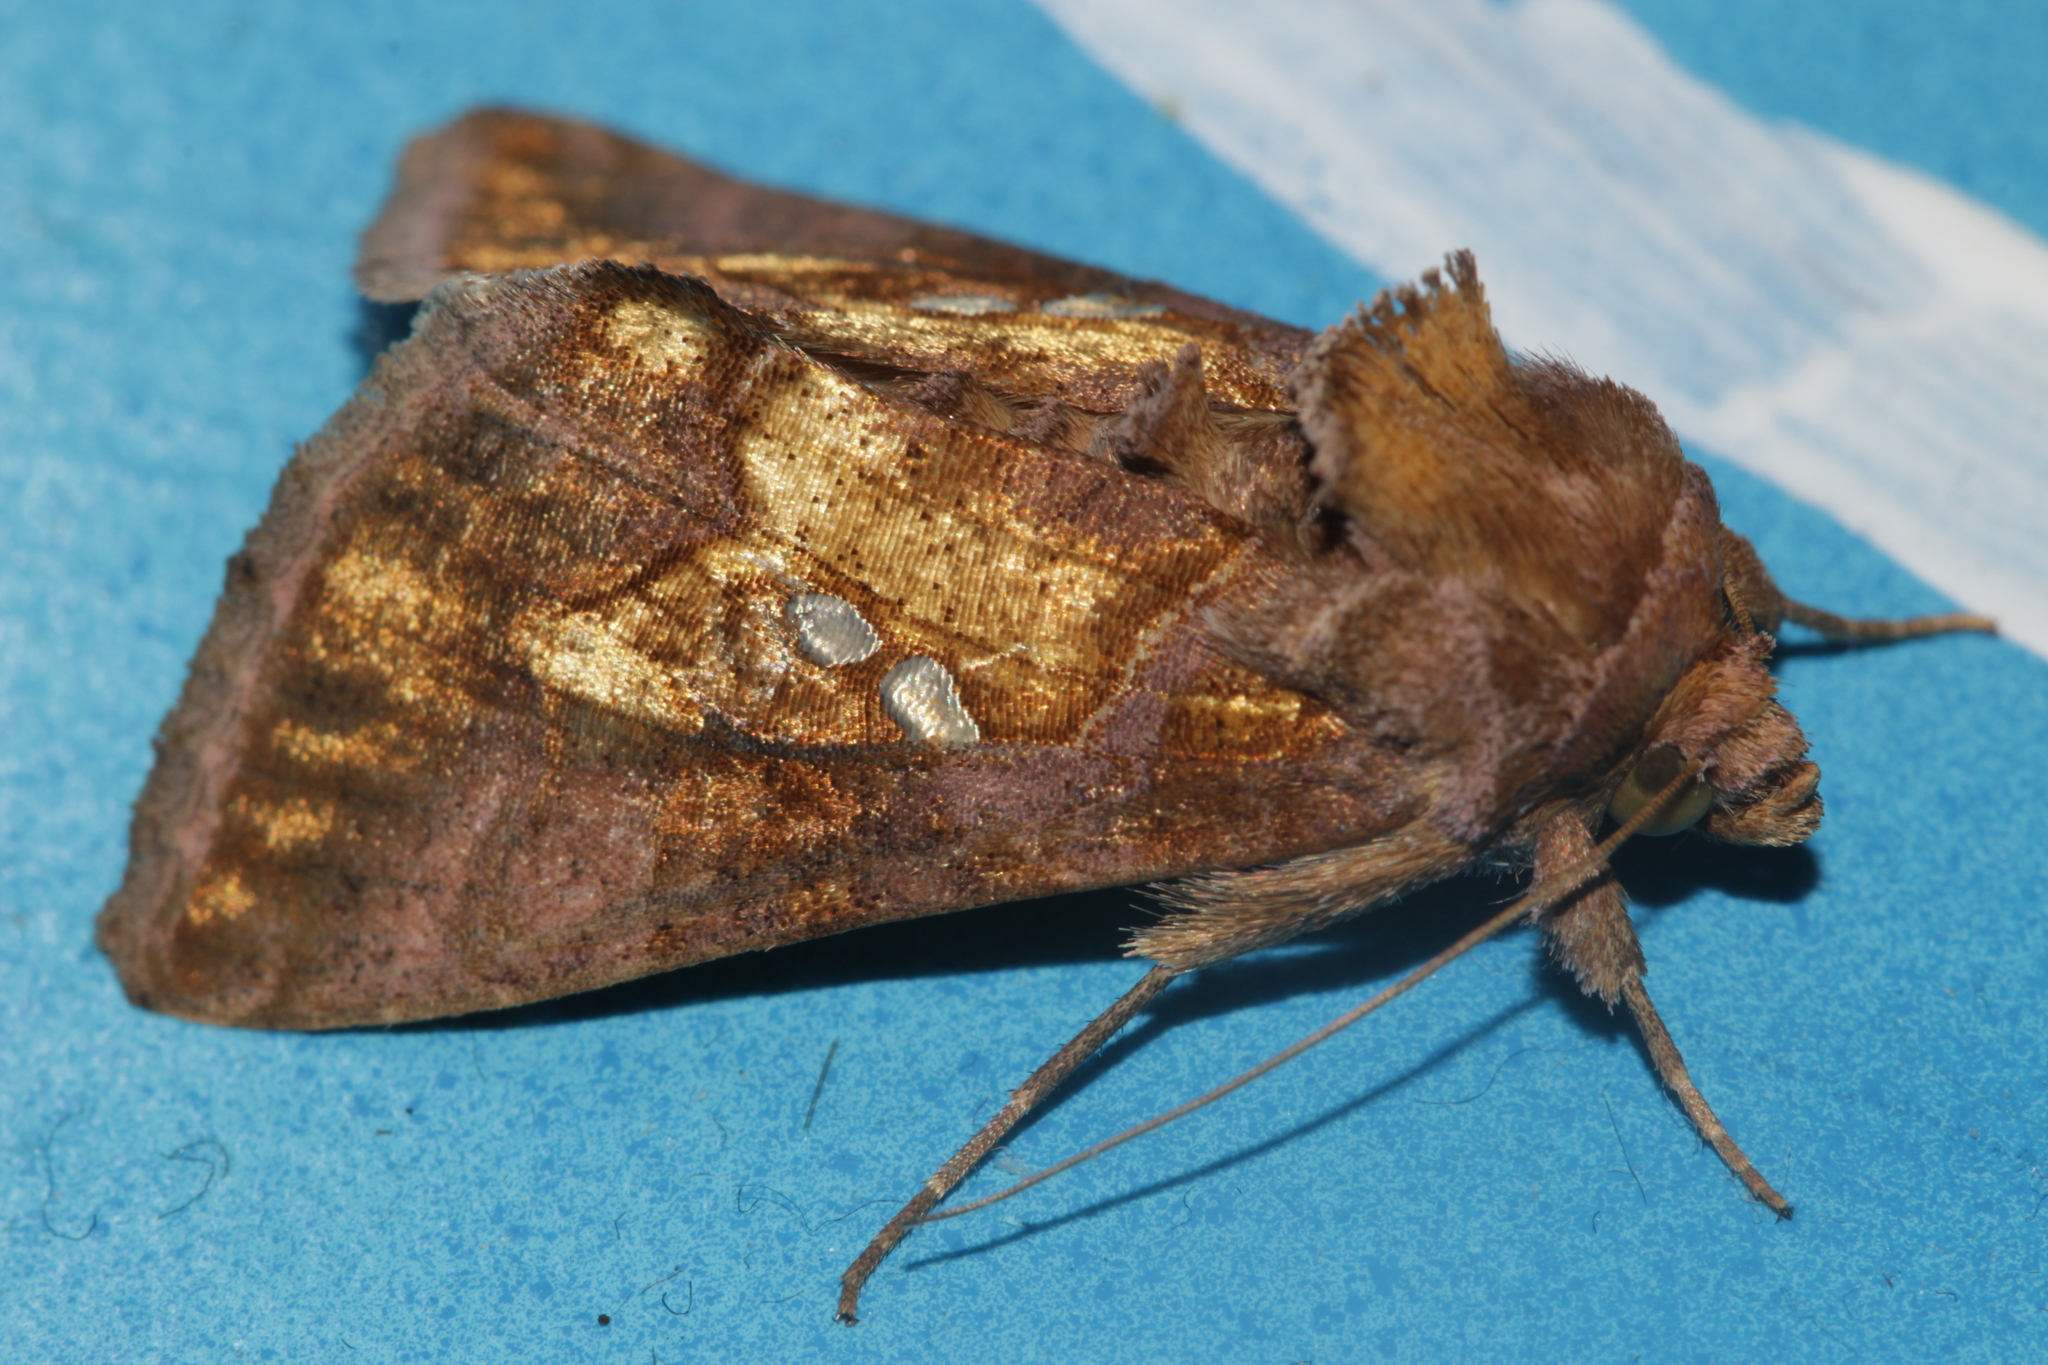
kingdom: Animalia
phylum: Arthropoda
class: Insecta
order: Lepidoptera
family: Noctuidae
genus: Chrysodeixis
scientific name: Chrysodeixis chalcites
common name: Golden twin-spot
